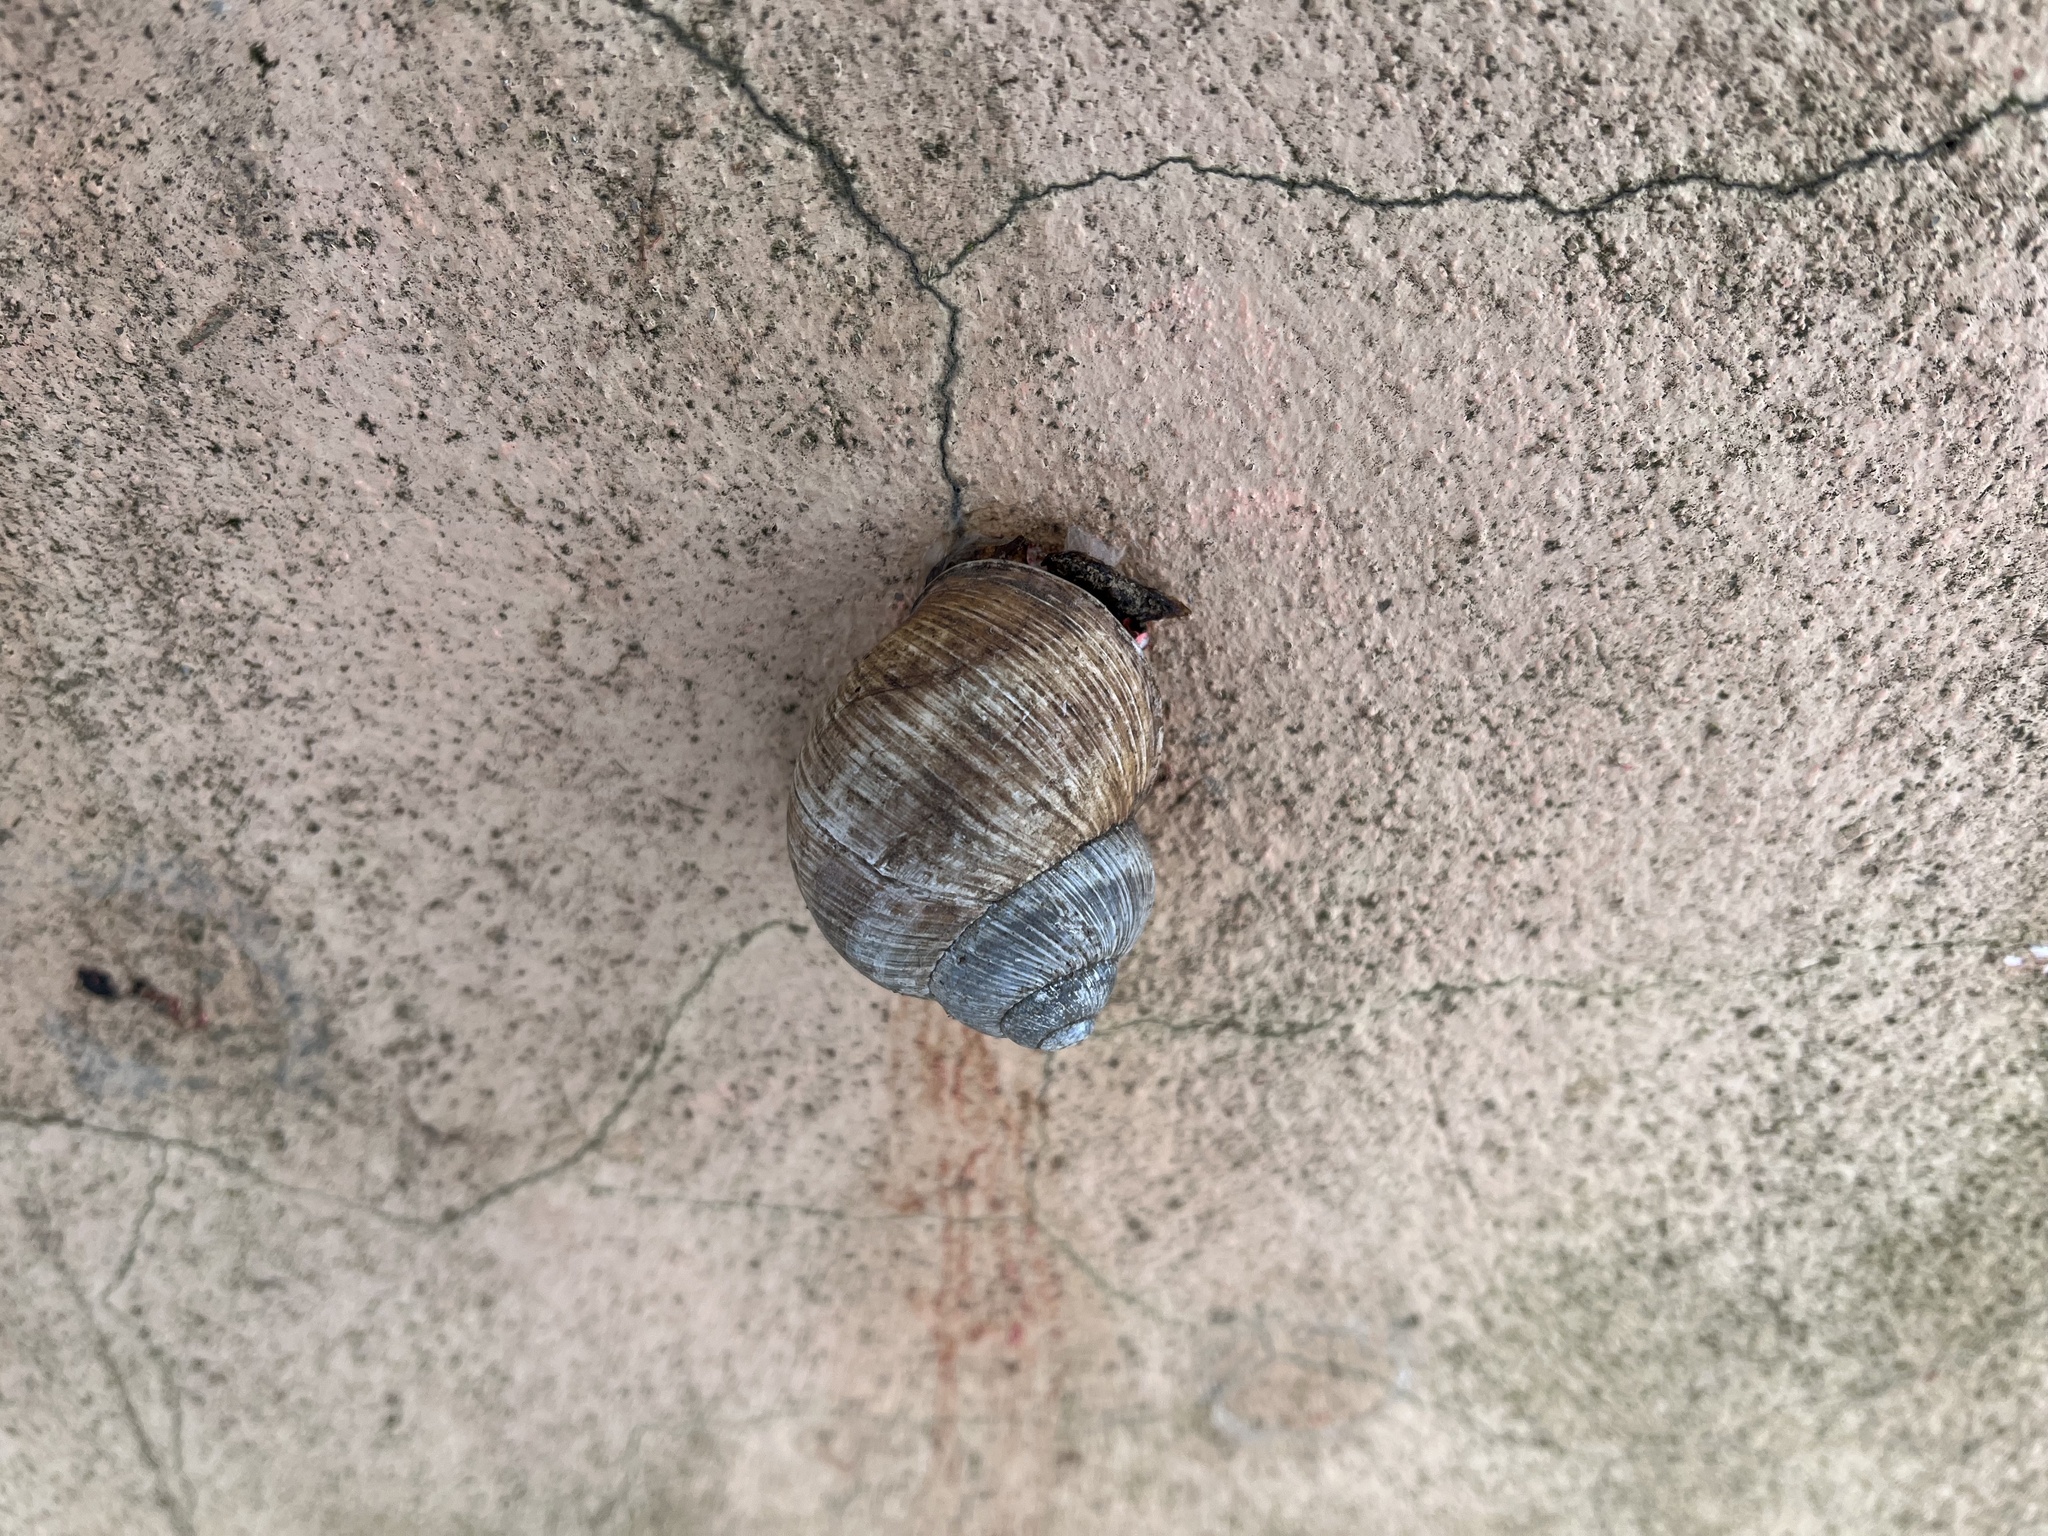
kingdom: Animalia
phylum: Mollusca
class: Gastropoda
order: Stylommatophora
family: Helicidae
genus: Helix
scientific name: Helix pomatia
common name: Roman snail
